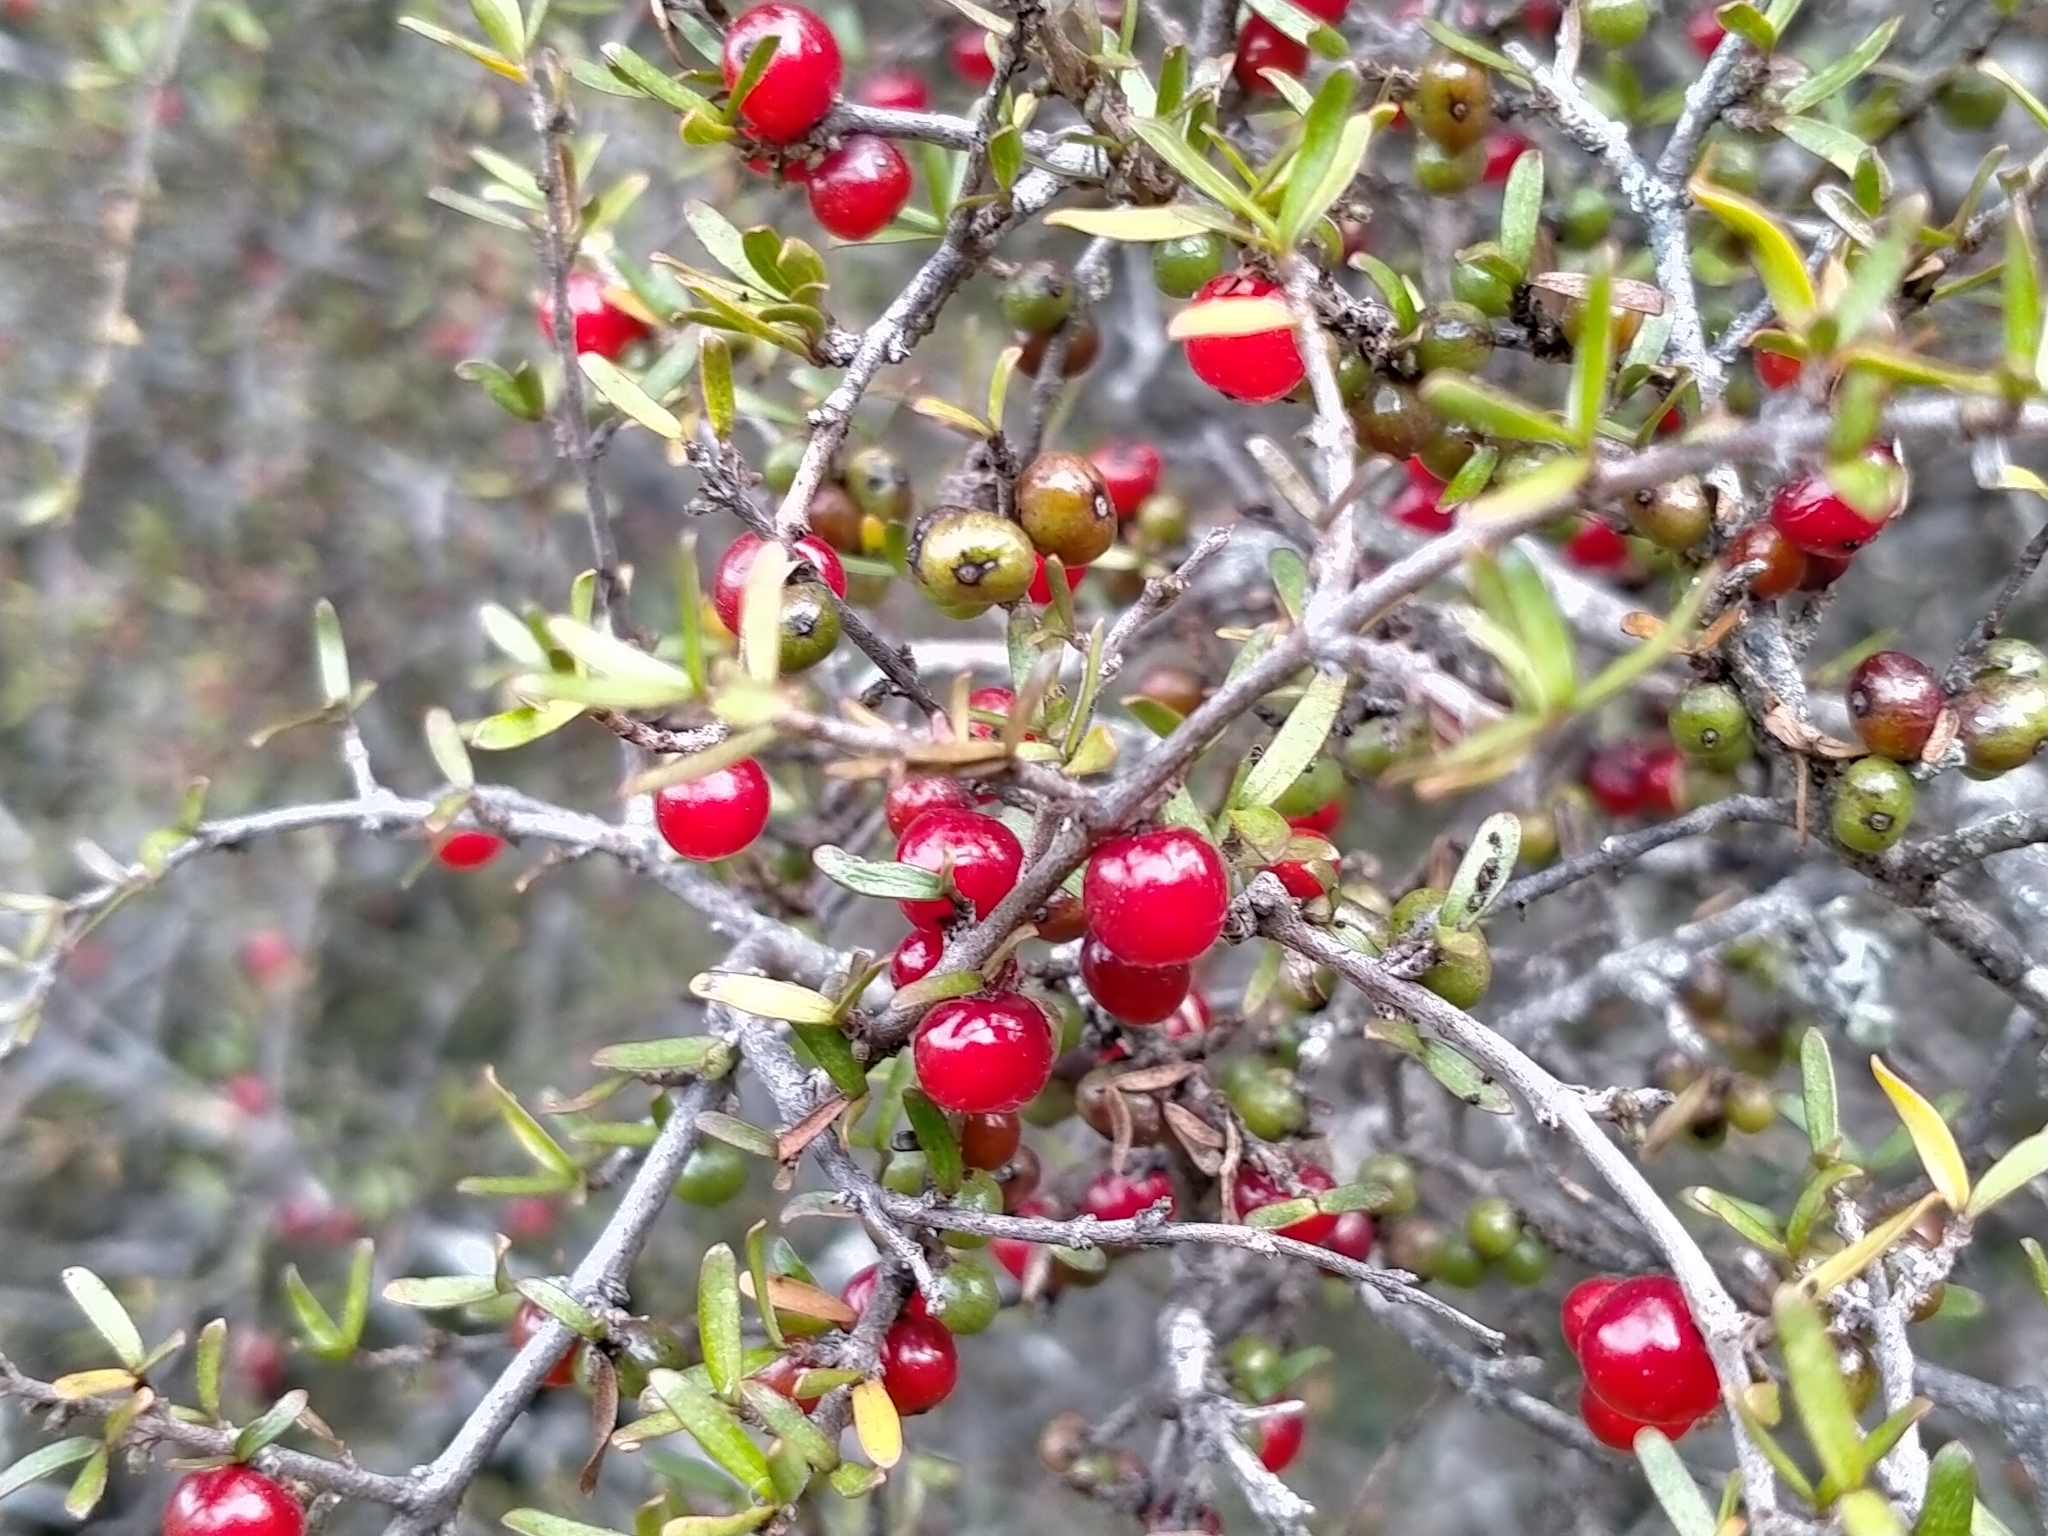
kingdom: Plantae
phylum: Tracheophyta
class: Magnoliopsida
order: Gentianales
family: Rubiaceae
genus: Coprosma
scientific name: Coprosma decurva
